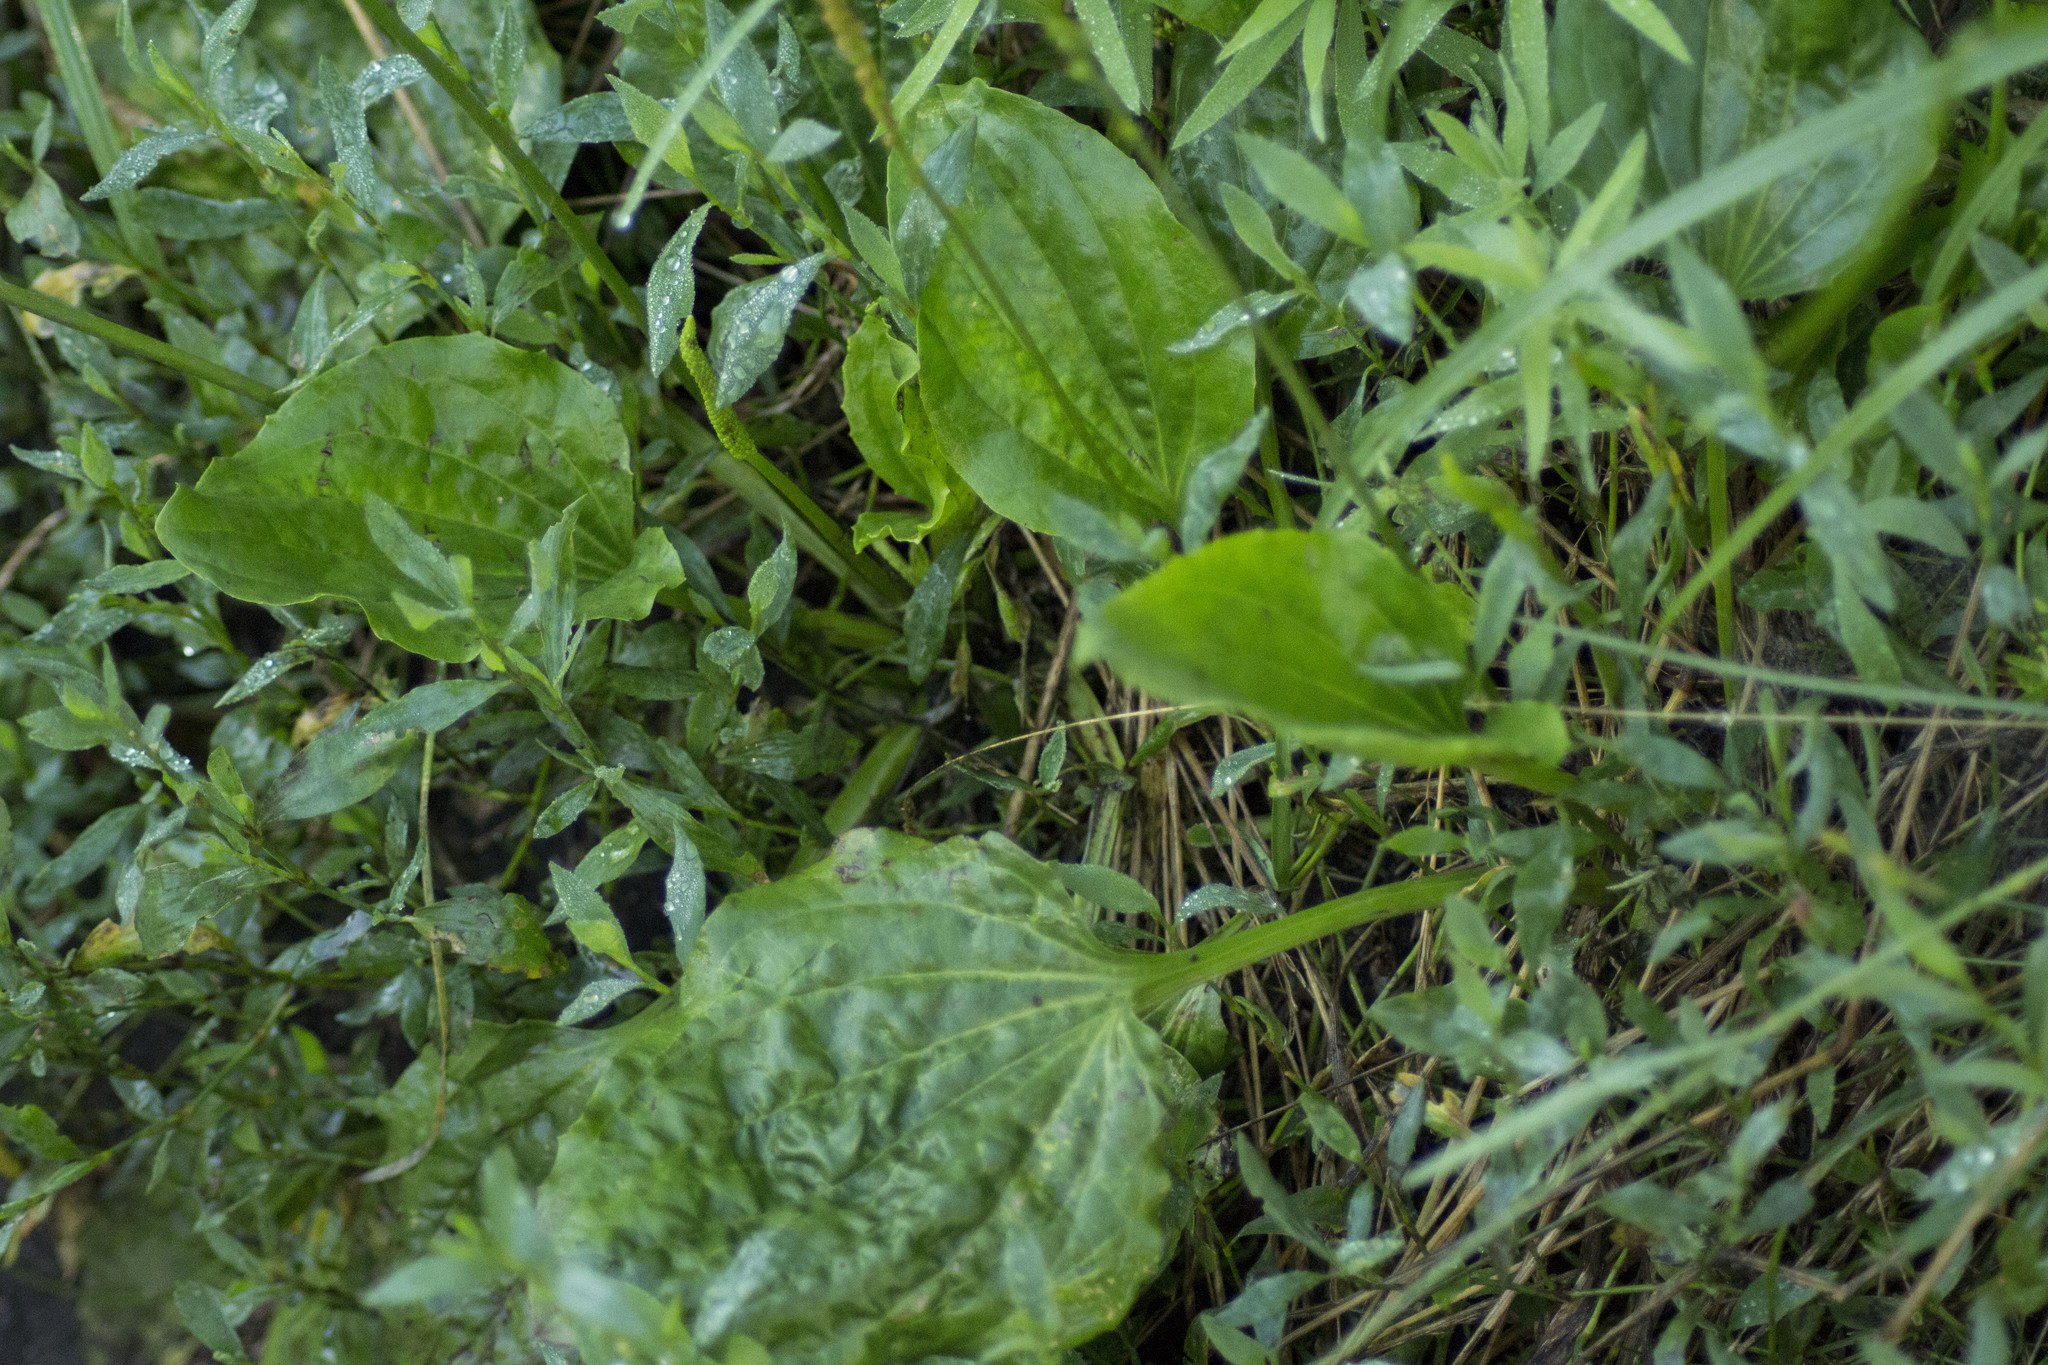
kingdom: Plantae
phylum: Tracheophyta
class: Magnoliopsida
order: Lamiales
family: Plantaginaceae
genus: Plantago
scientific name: Plantago major
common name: Common plantain
